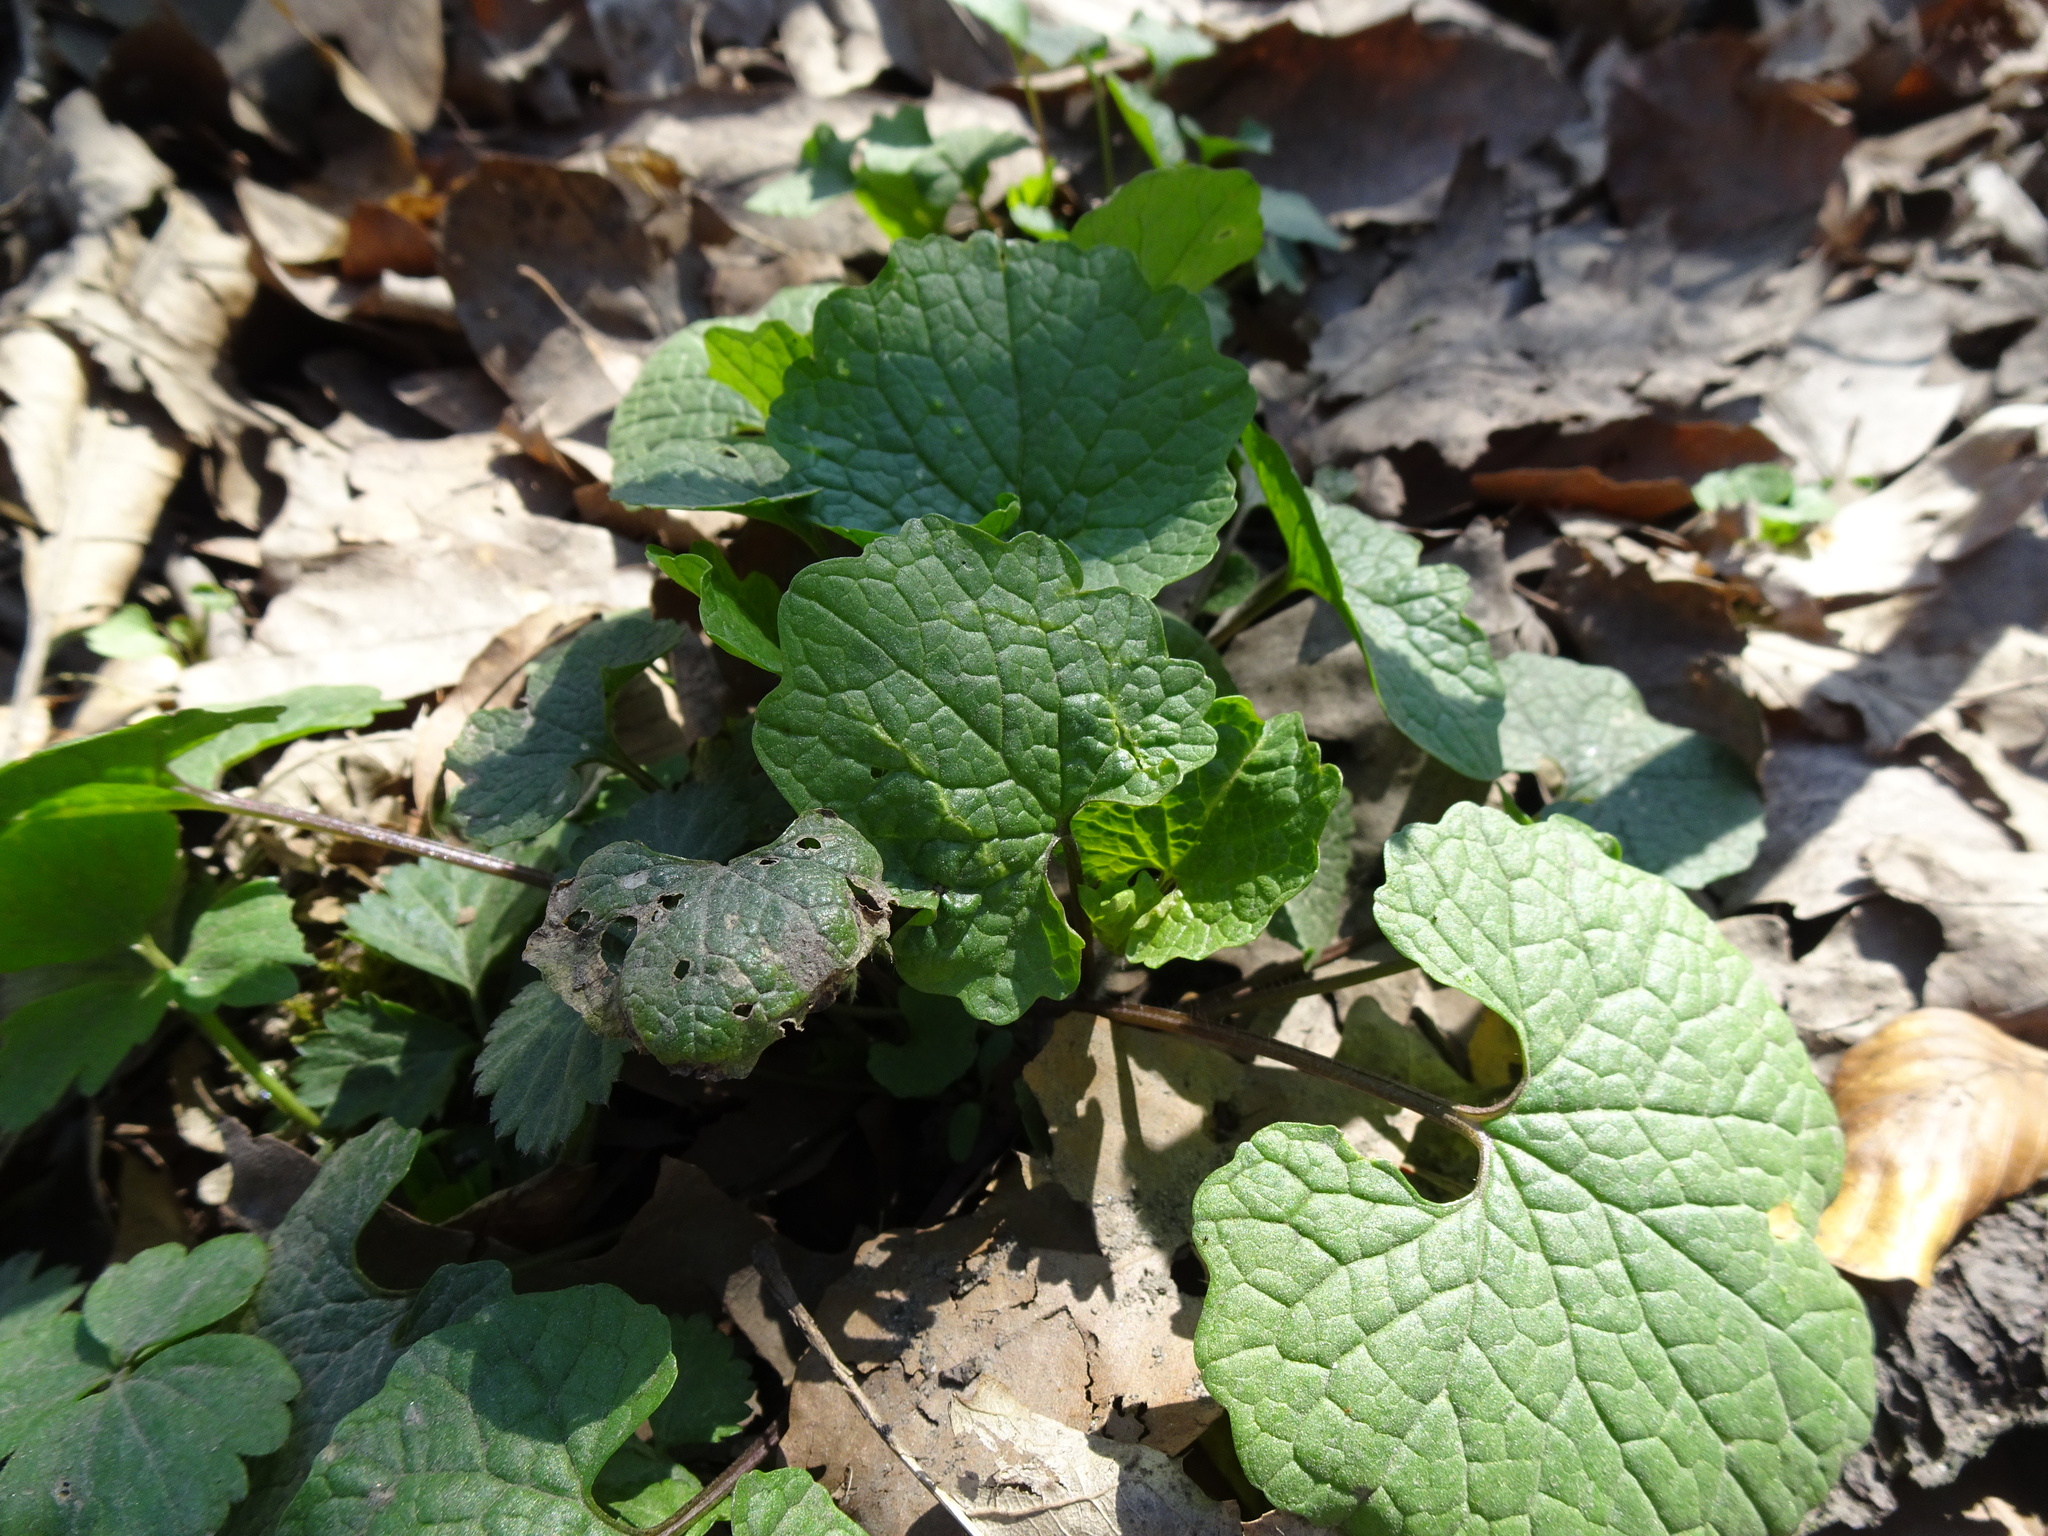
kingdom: Plantae
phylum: Tracheophyta
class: Magnoliopsida
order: Brassicales
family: Brassicaceae
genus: Alliaria
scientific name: Alliaria petiolata
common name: Garlic mustard
